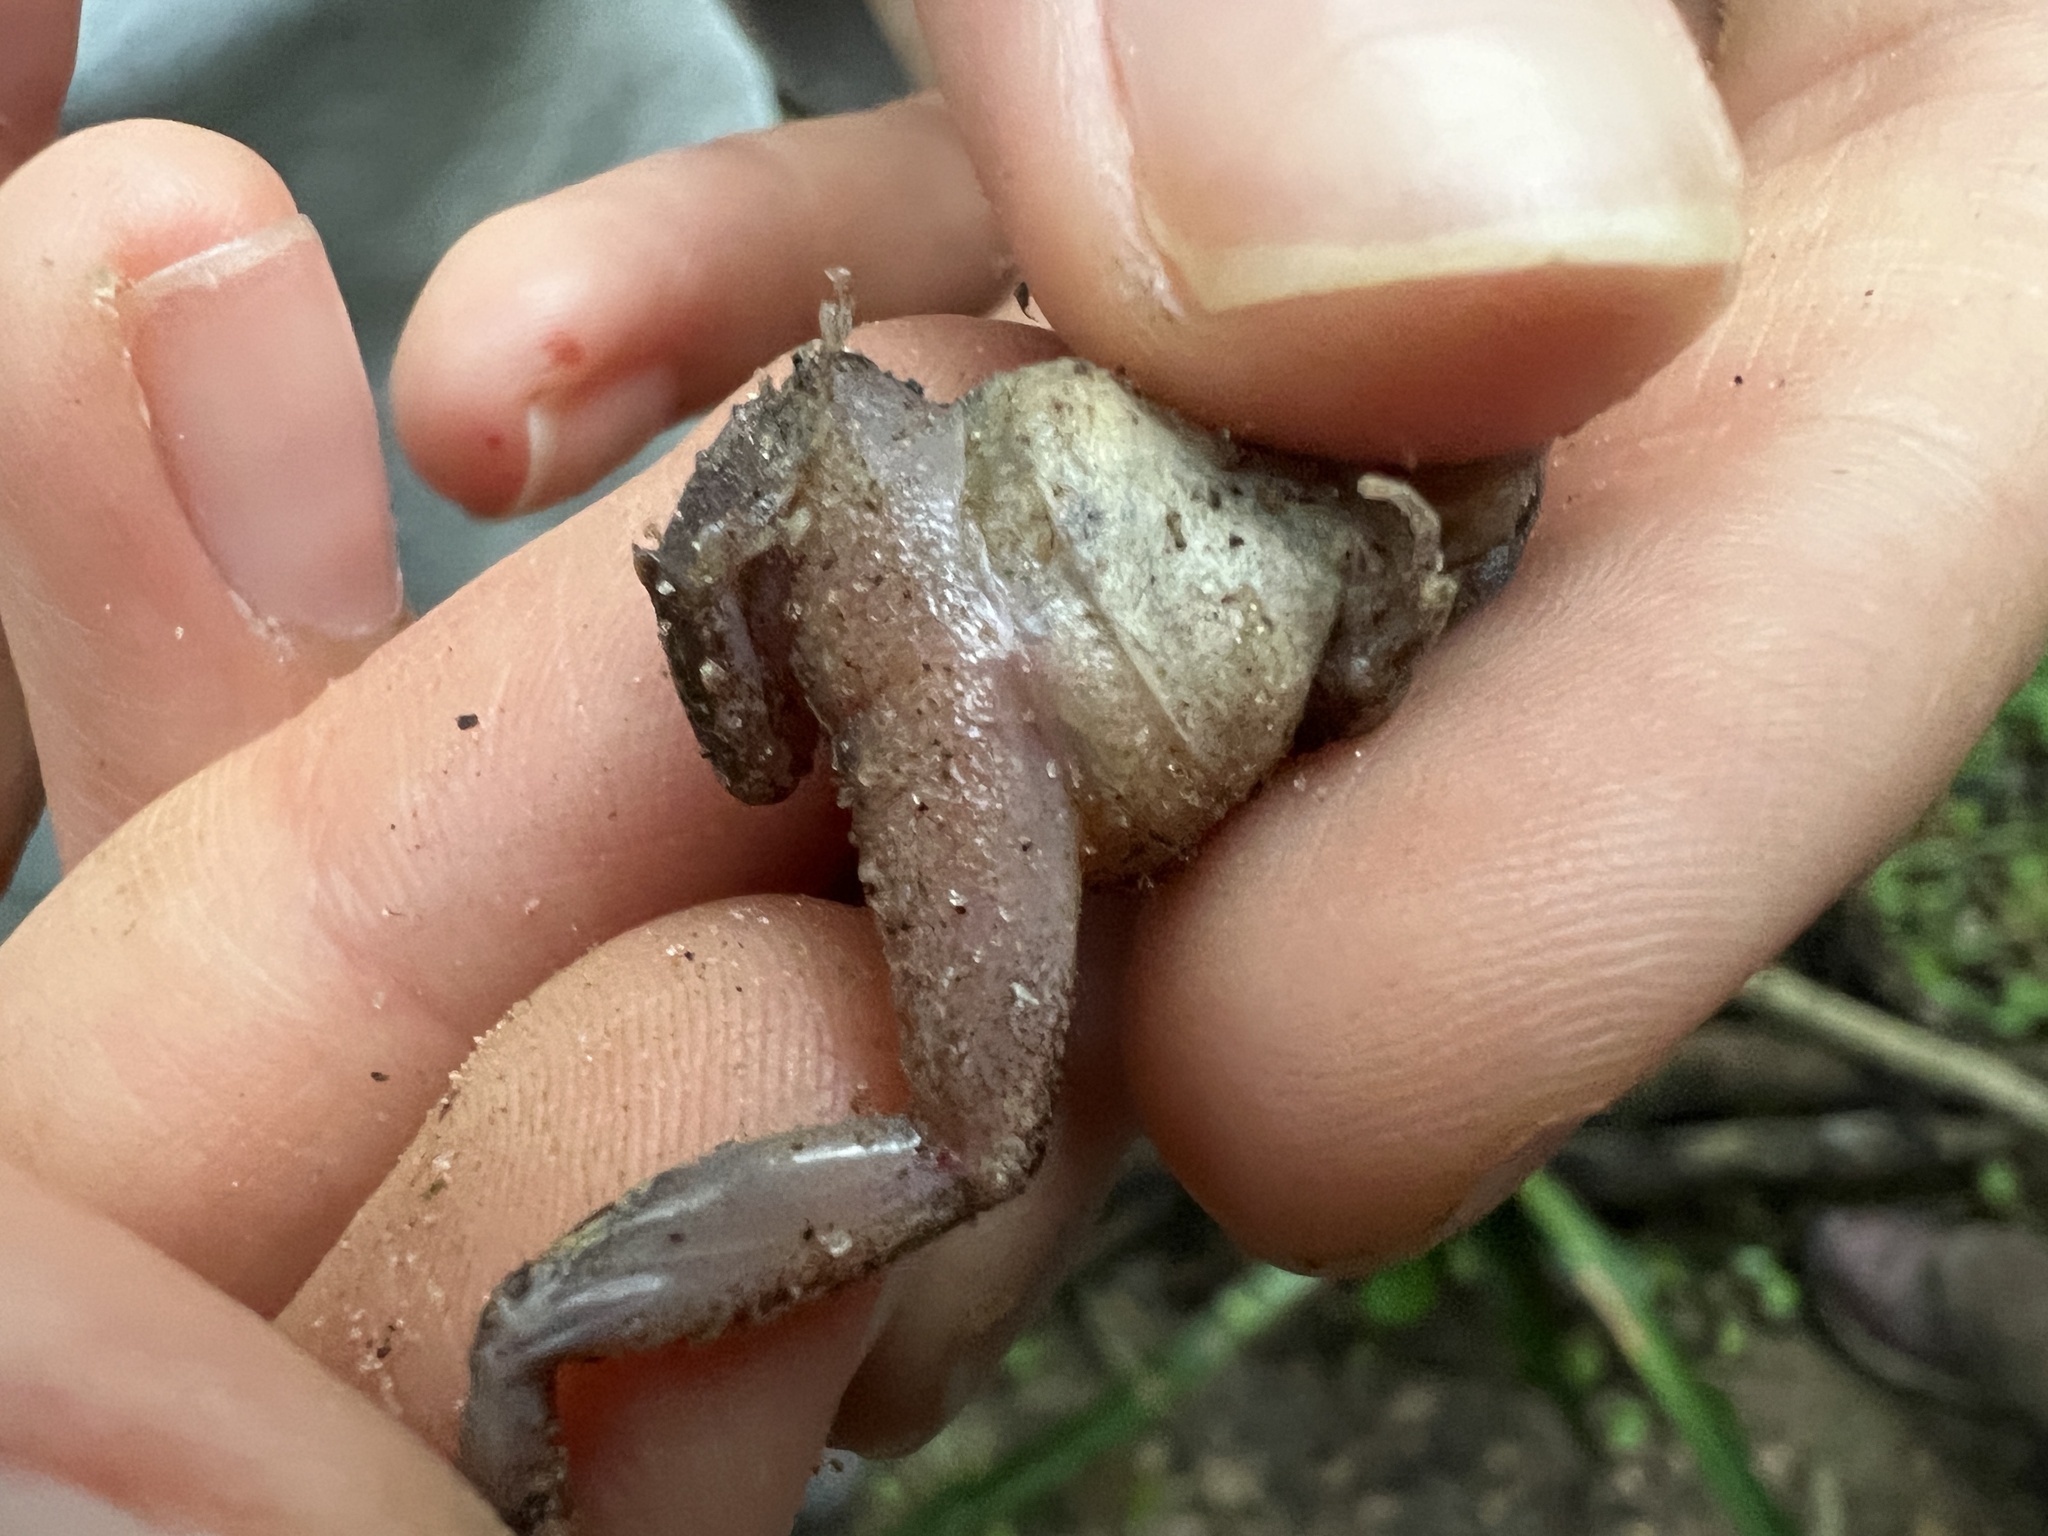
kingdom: Animalia
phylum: Chordata
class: Amphibia
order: Anura
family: Leptodactylidae
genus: Physalaemus
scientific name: Physalaemus albonotatus
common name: Menwig frog
